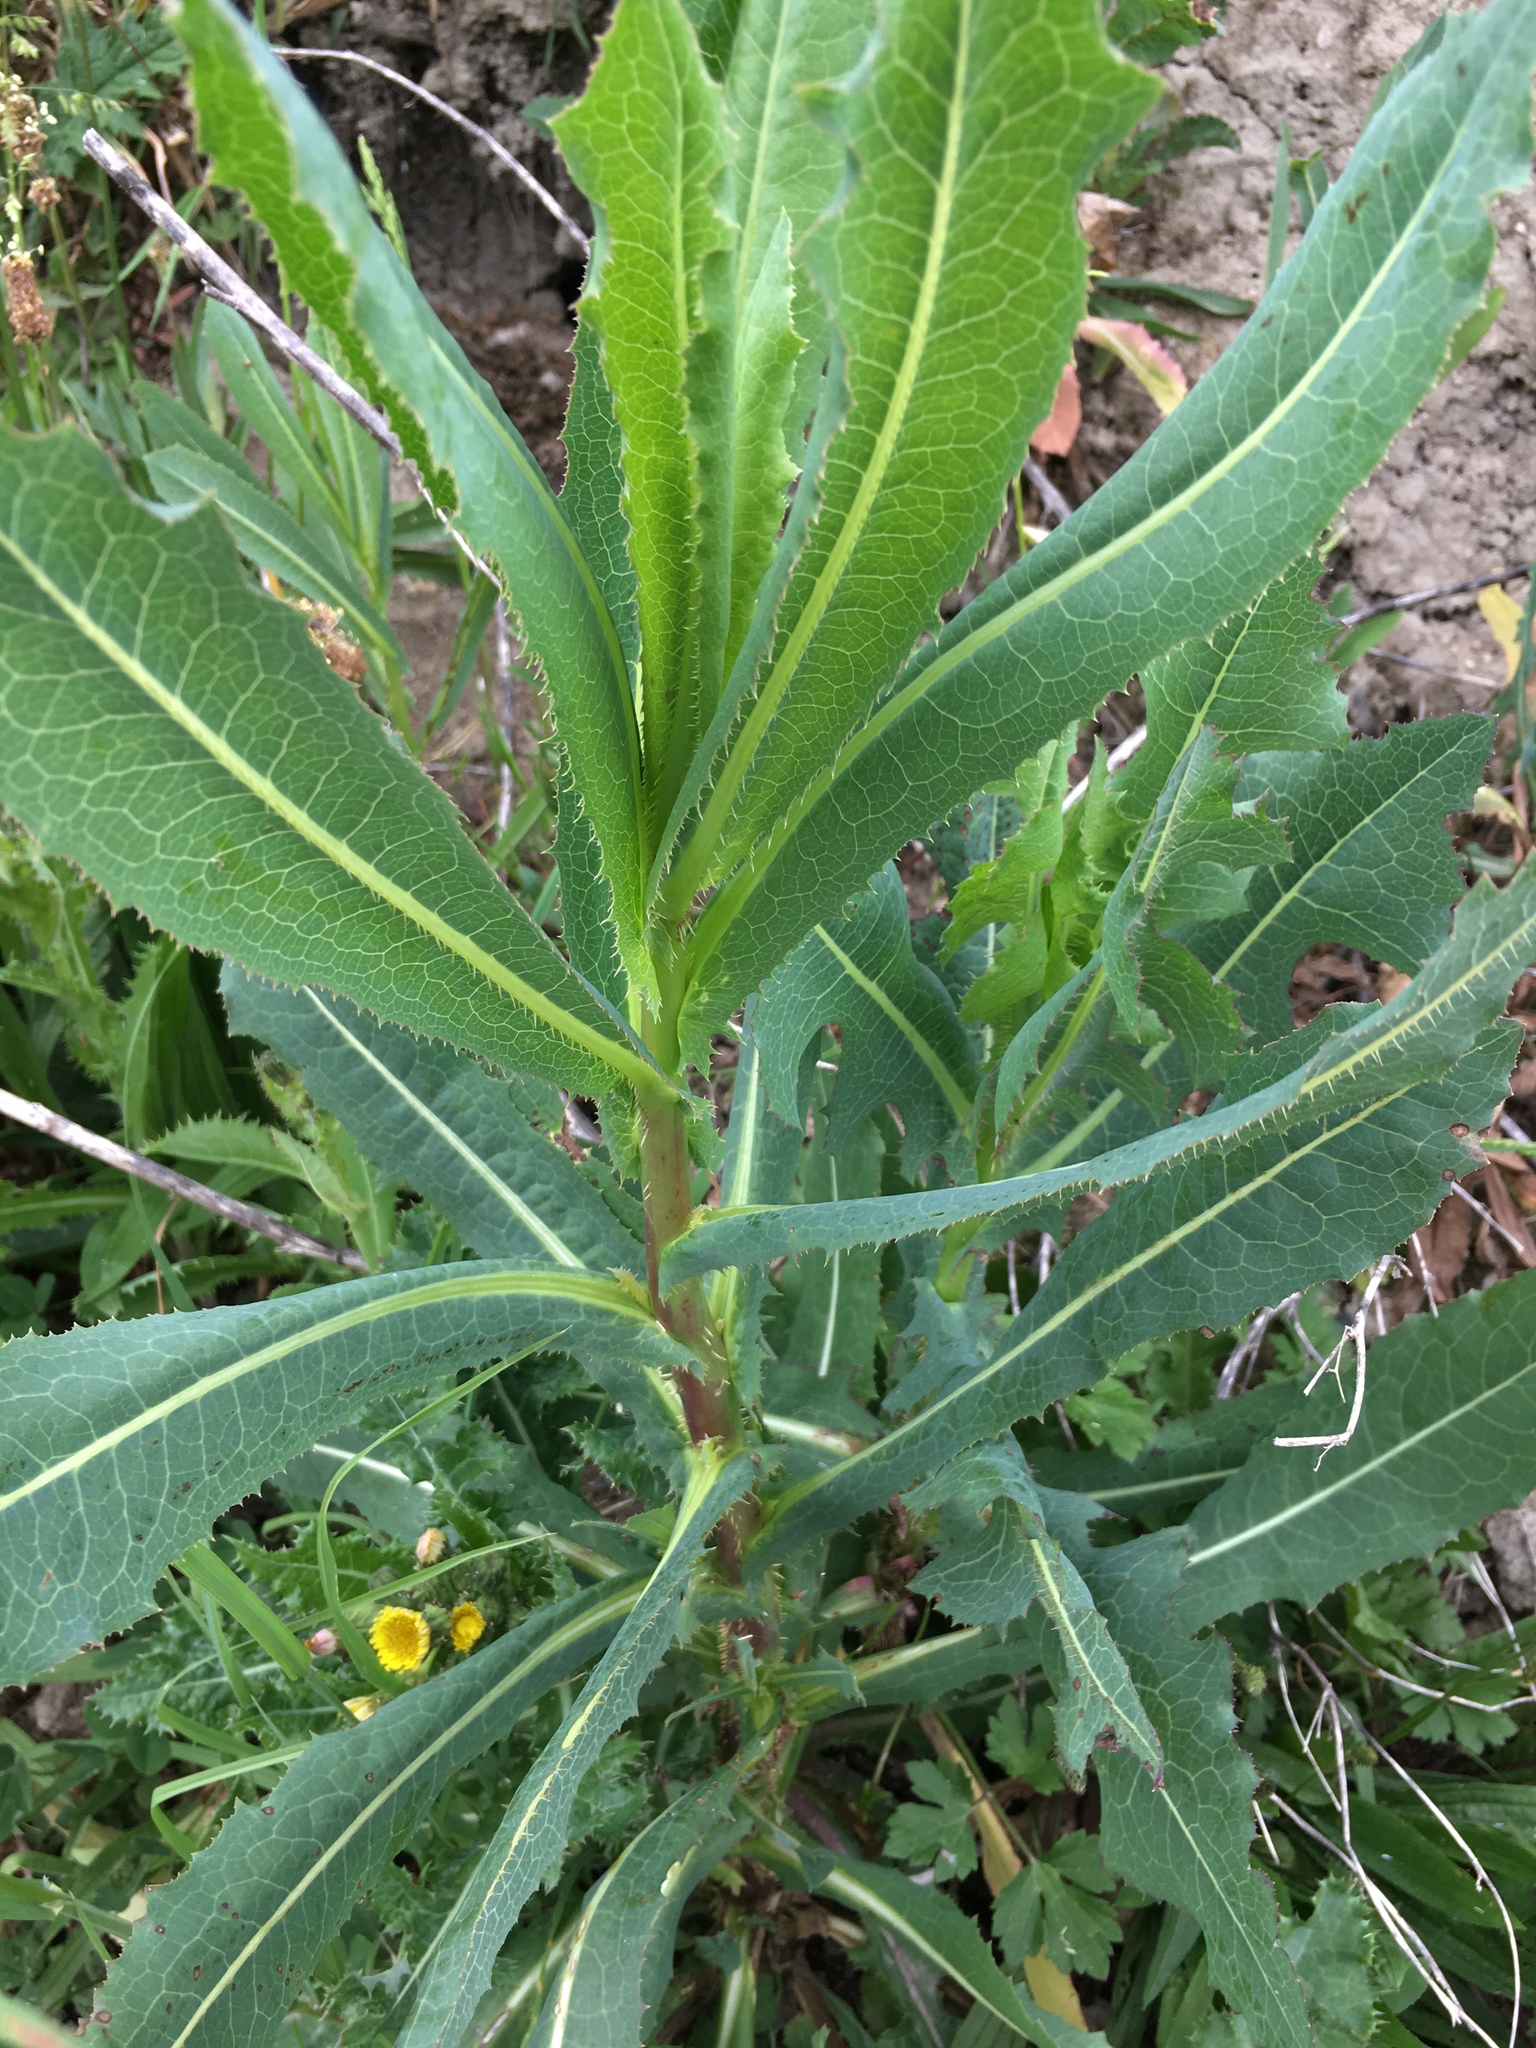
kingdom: Plantae
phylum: Tracheophyta
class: Magnoliopsida
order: Asterales
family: Asteraceae
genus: Lactuca
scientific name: Lactuca serriola
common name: Prickly lettuce
